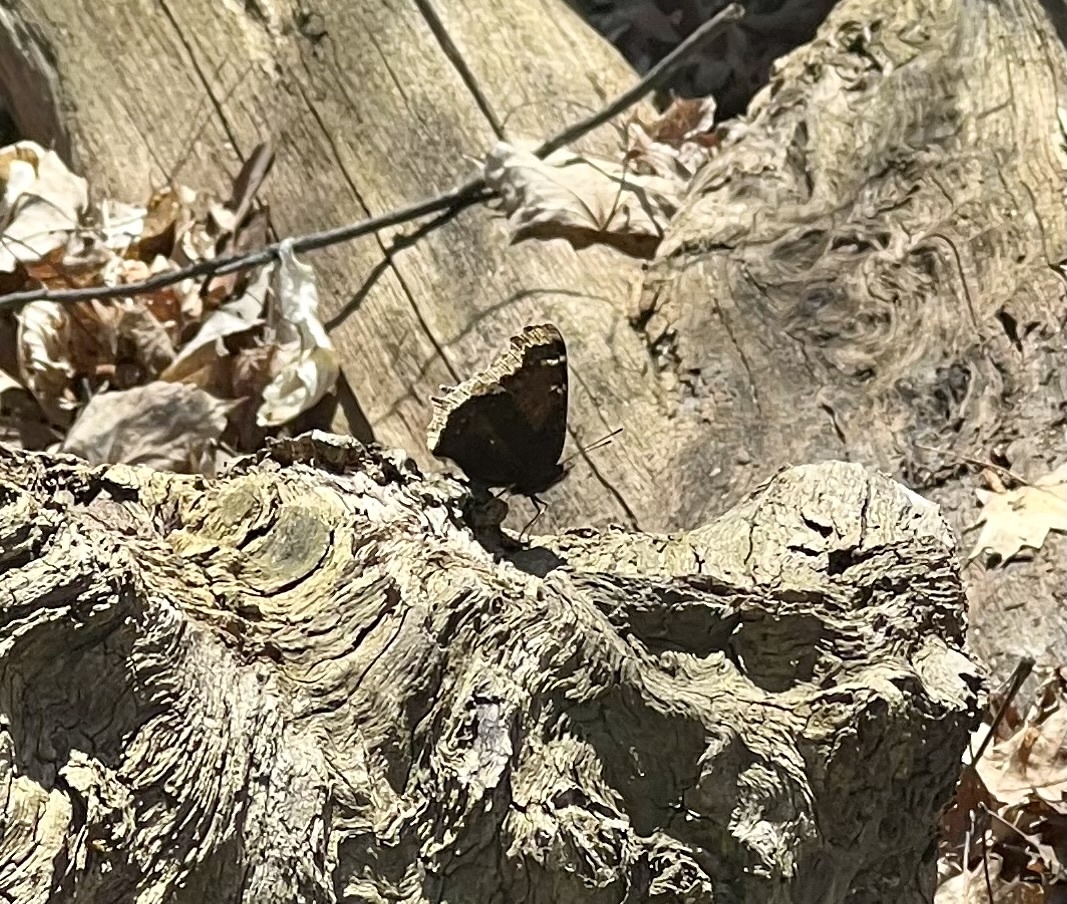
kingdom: Animalia
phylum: Arthropoda
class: Insecta
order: Lepidoptera
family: Nymphalidae
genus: Nymphalis
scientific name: Nymphalis antiopa
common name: Camberwell beauty
